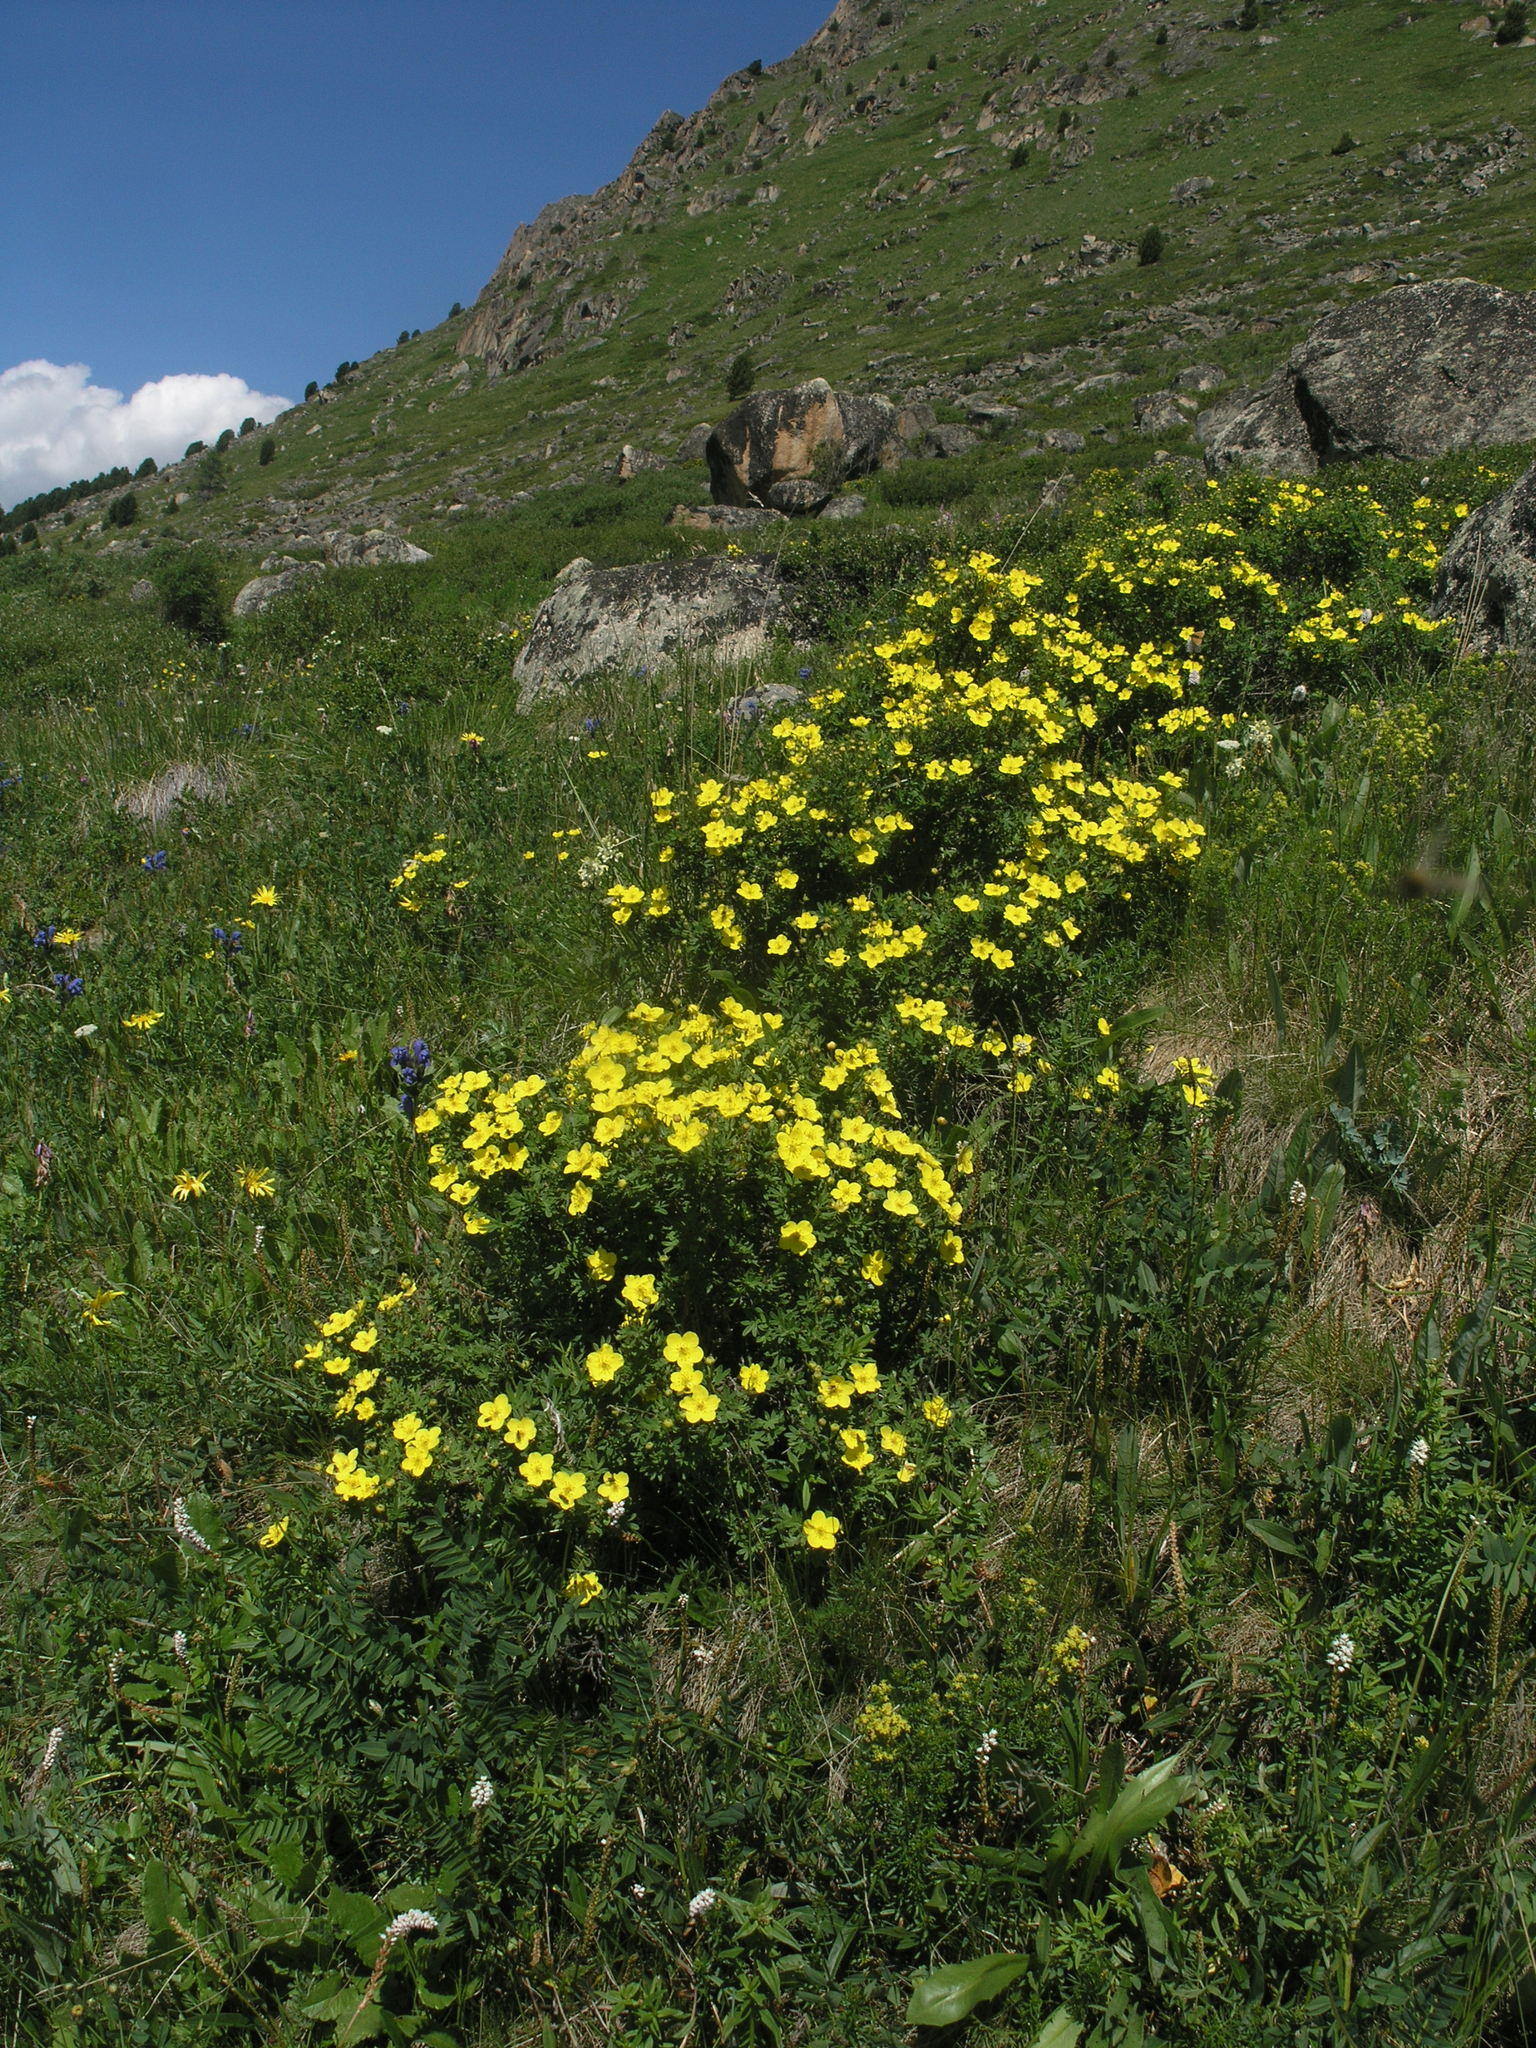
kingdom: Plantae
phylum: Tracheophyta
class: Magnoliopsida
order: Rosales
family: Rosaceae
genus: Dasiphora
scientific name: Dasiphora fruticosa
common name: Shrubby cinquefoil
